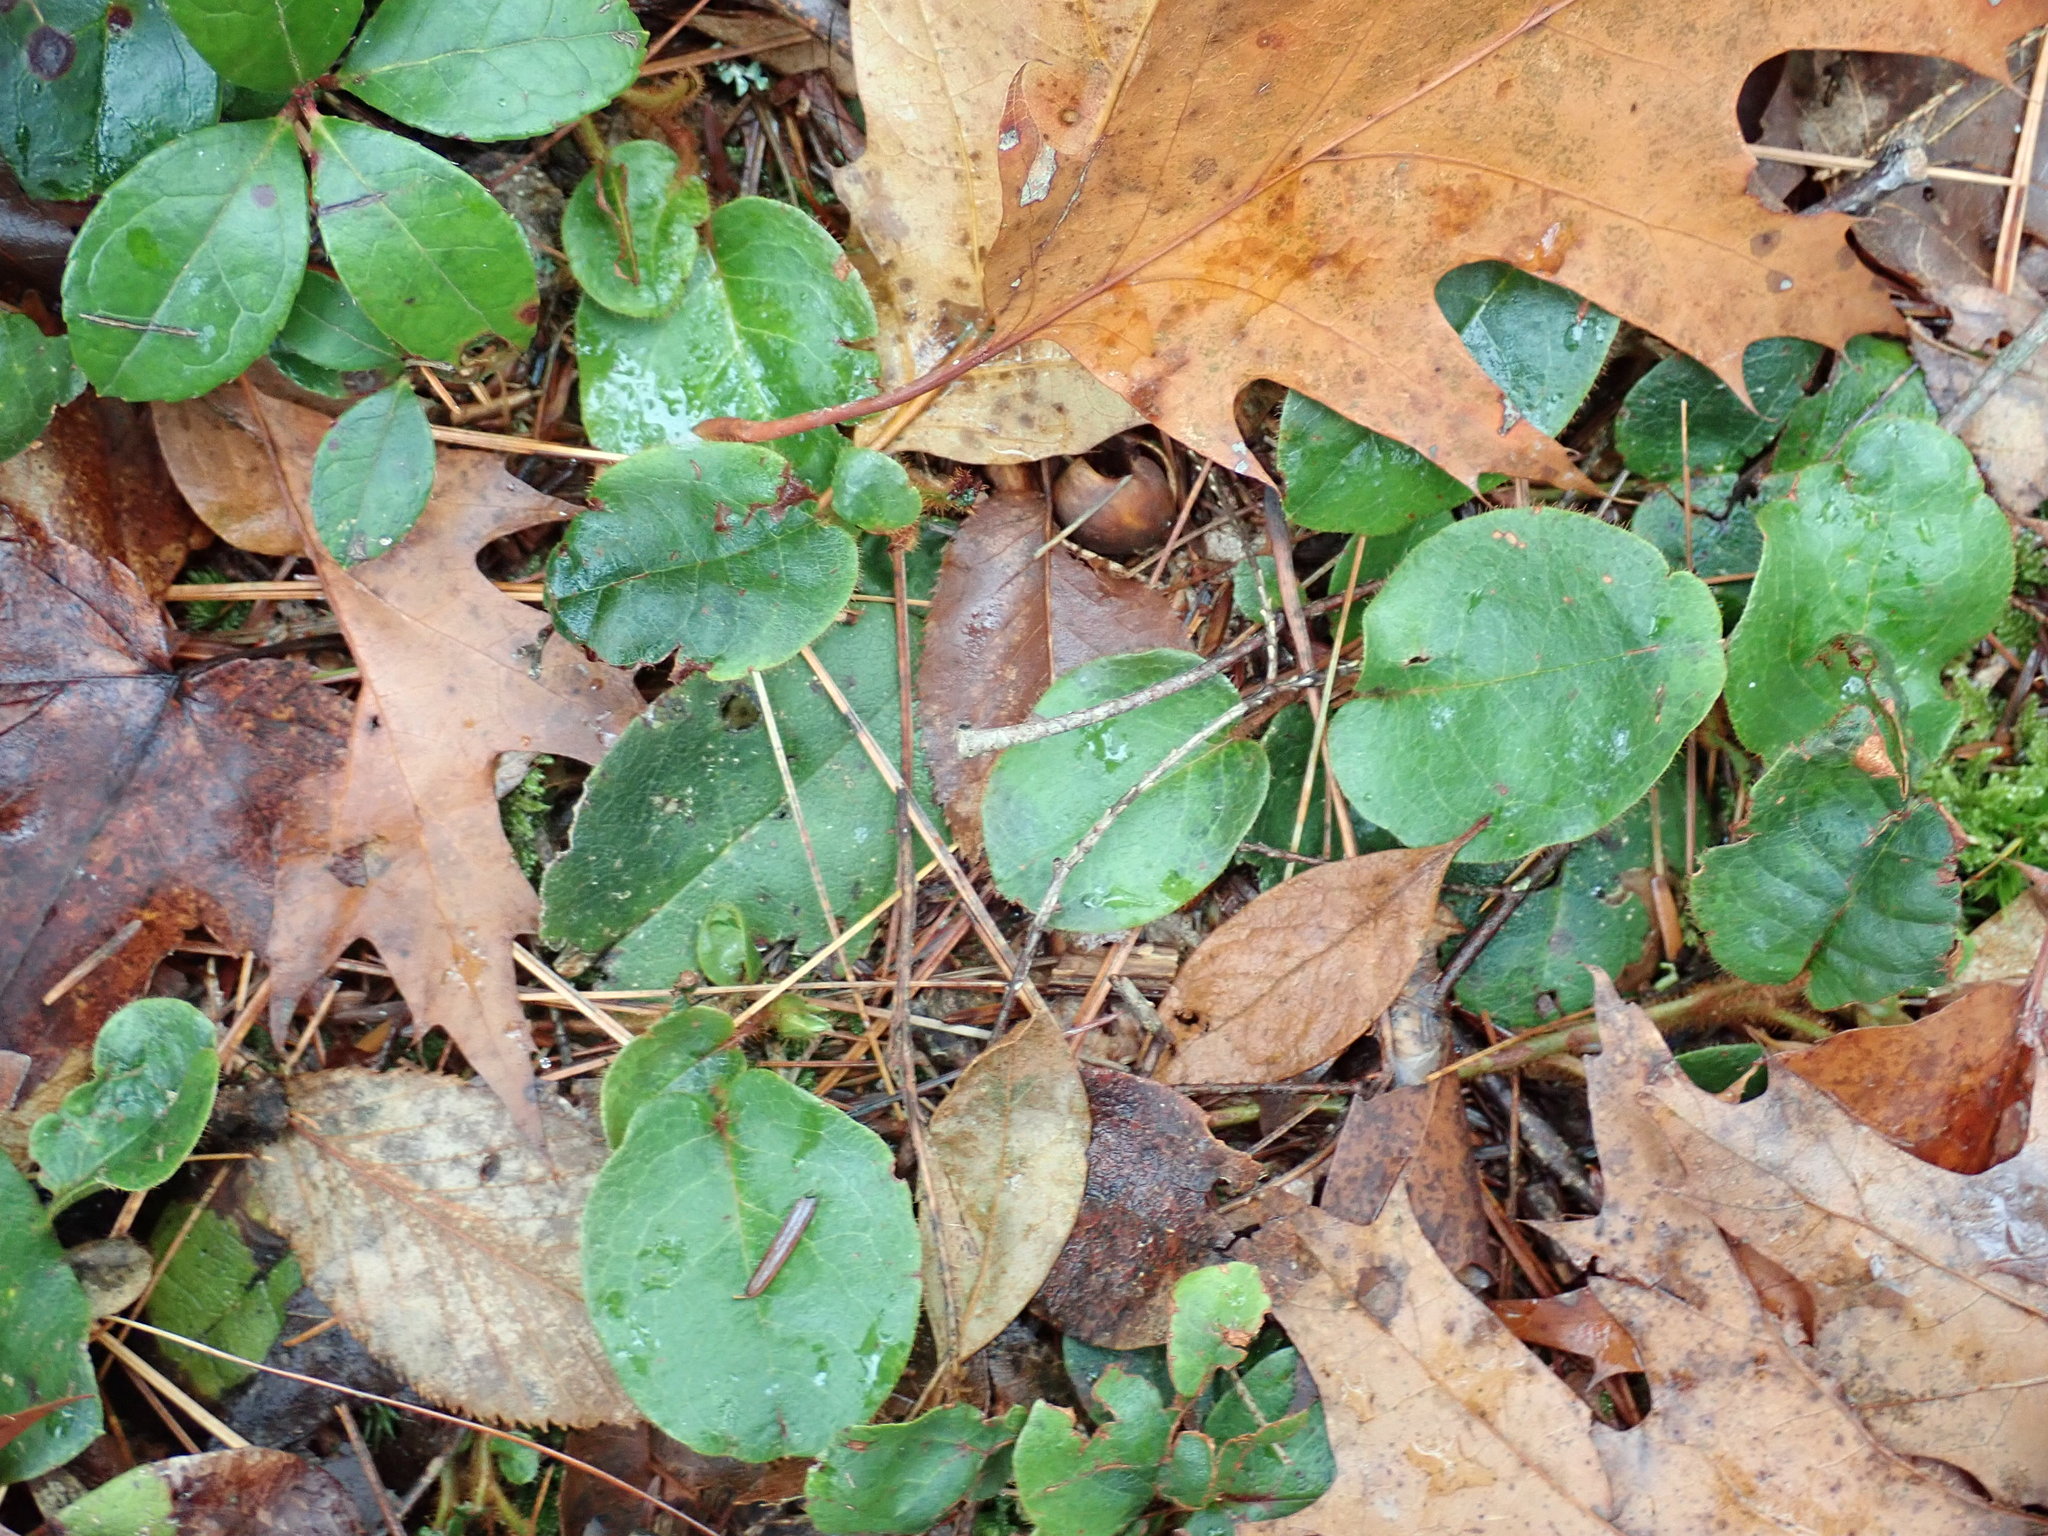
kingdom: Plantae
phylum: Tracheophyta
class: Magnoliopsida
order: Ericales
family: Ericaceae
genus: Epigaea
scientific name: Epigaea repens
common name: Gravelroot
